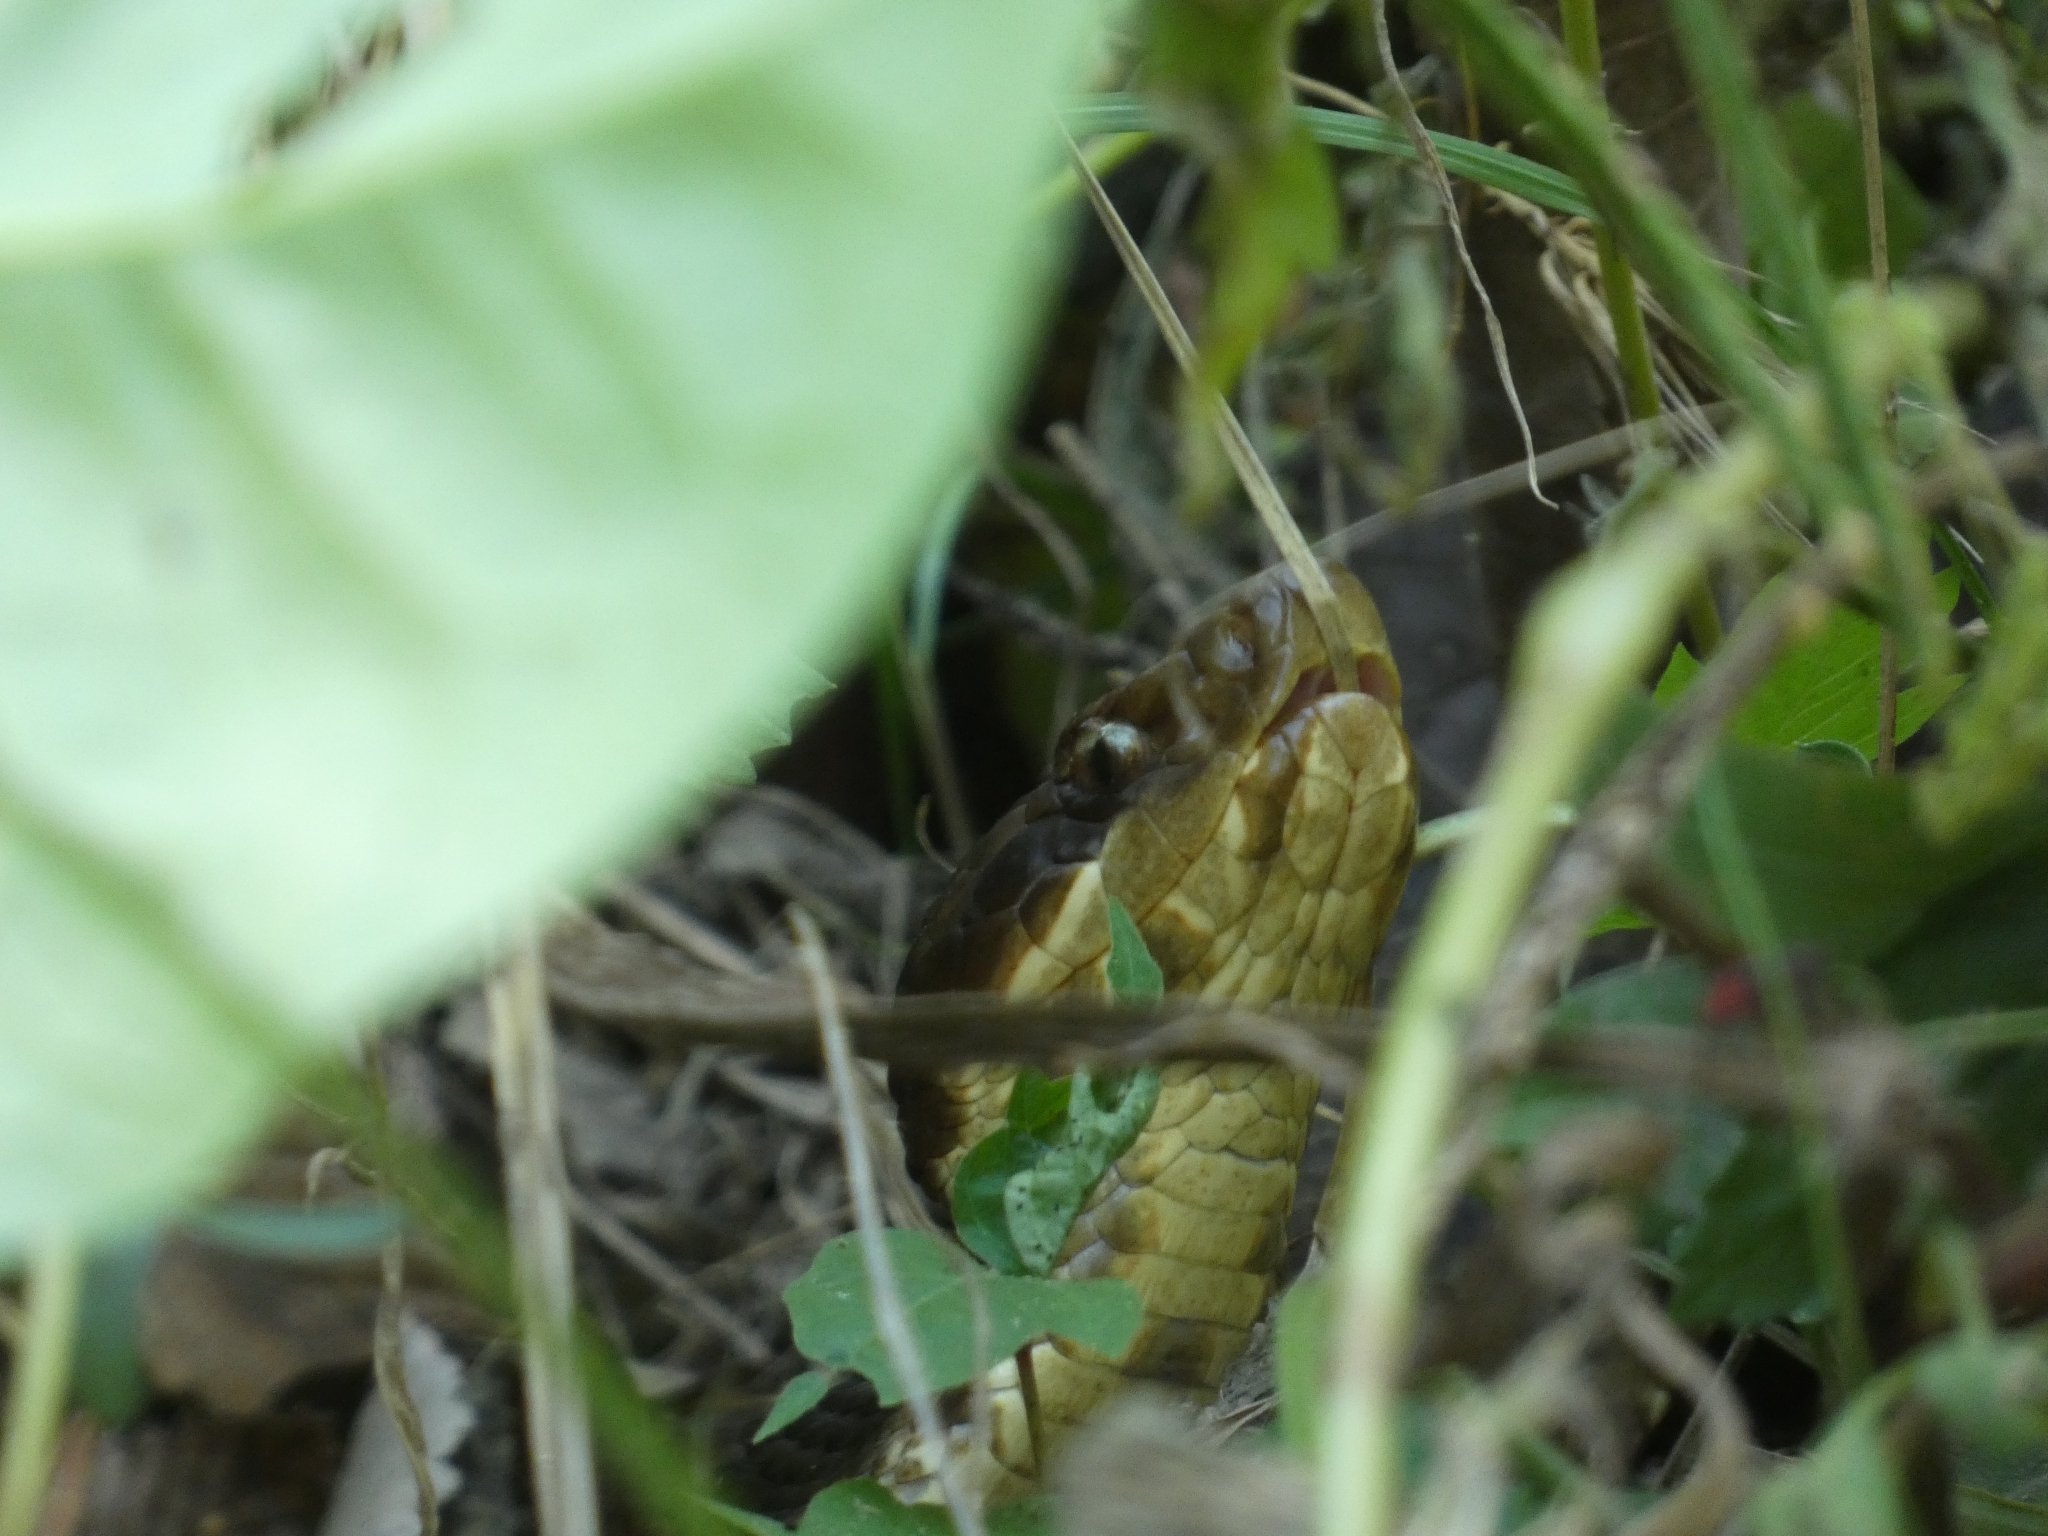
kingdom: Animalia
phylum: Chordata
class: Squamata
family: Viperidae
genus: Agkistrodon
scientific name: Agkistrodon piscivorus
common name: Cottonmouth
